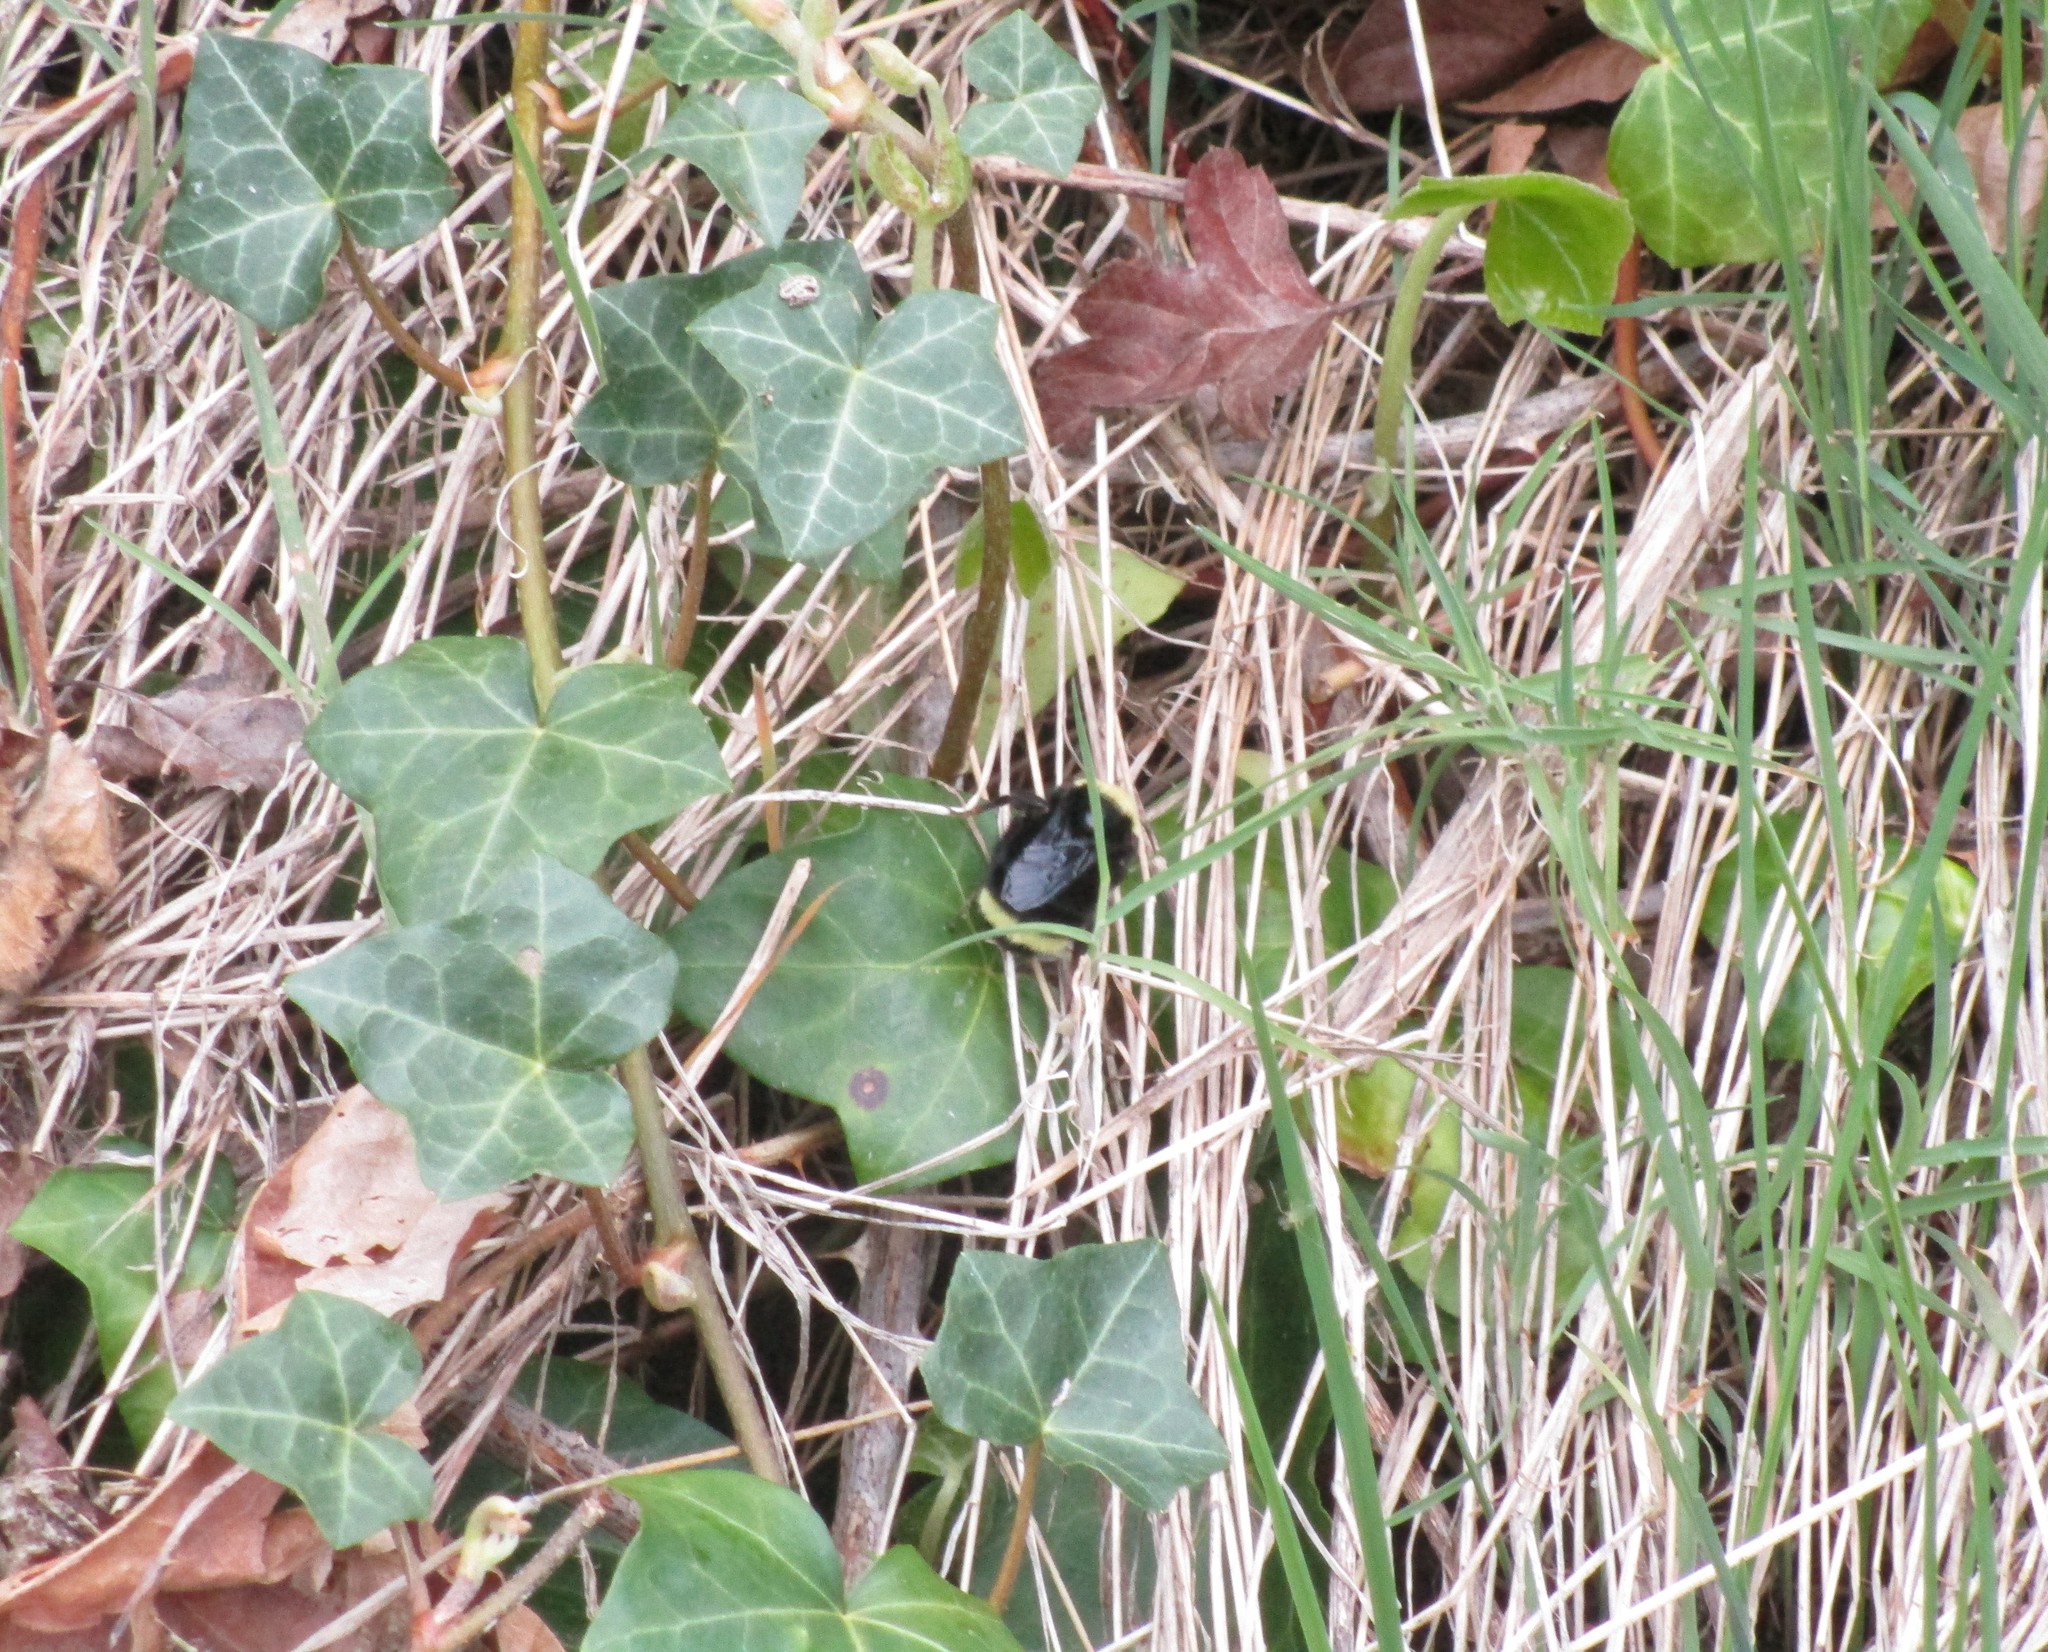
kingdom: Animalia
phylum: Arthropoda
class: Insecta
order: Hymenoptera
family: Apidae
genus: Pyrobombus
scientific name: Pyrobombus
